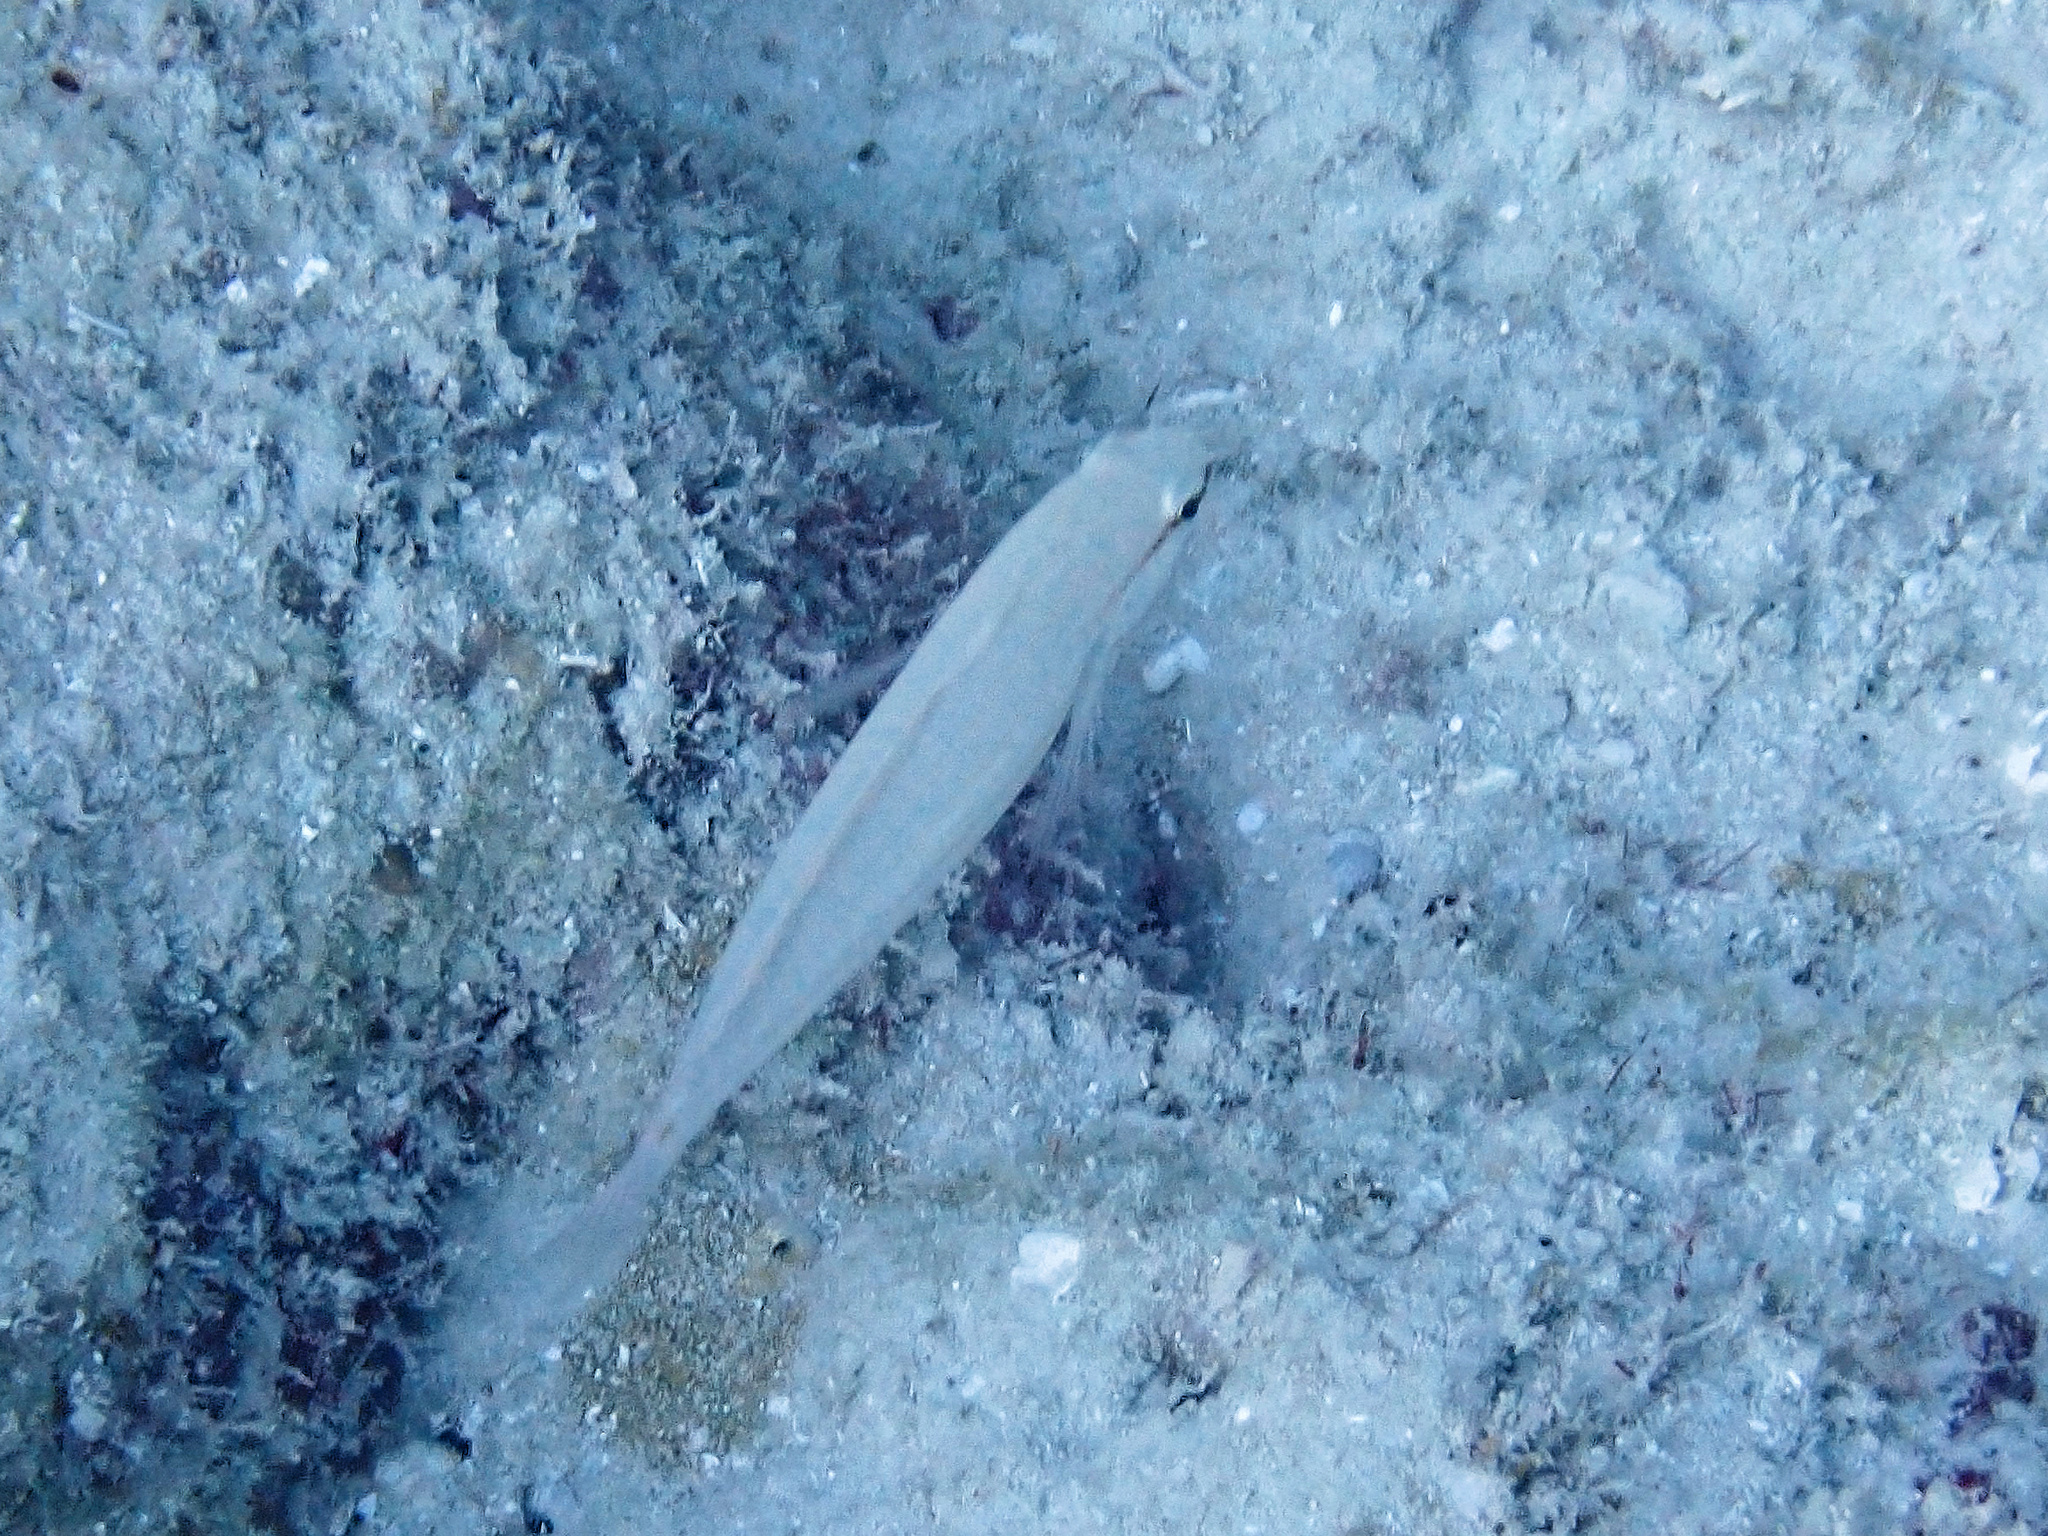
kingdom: Animalia
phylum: Chordata
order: Perciformes
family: Gobiidae
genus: Amblygobius
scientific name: Amblygobius decussatus
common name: Crosshatch goby
